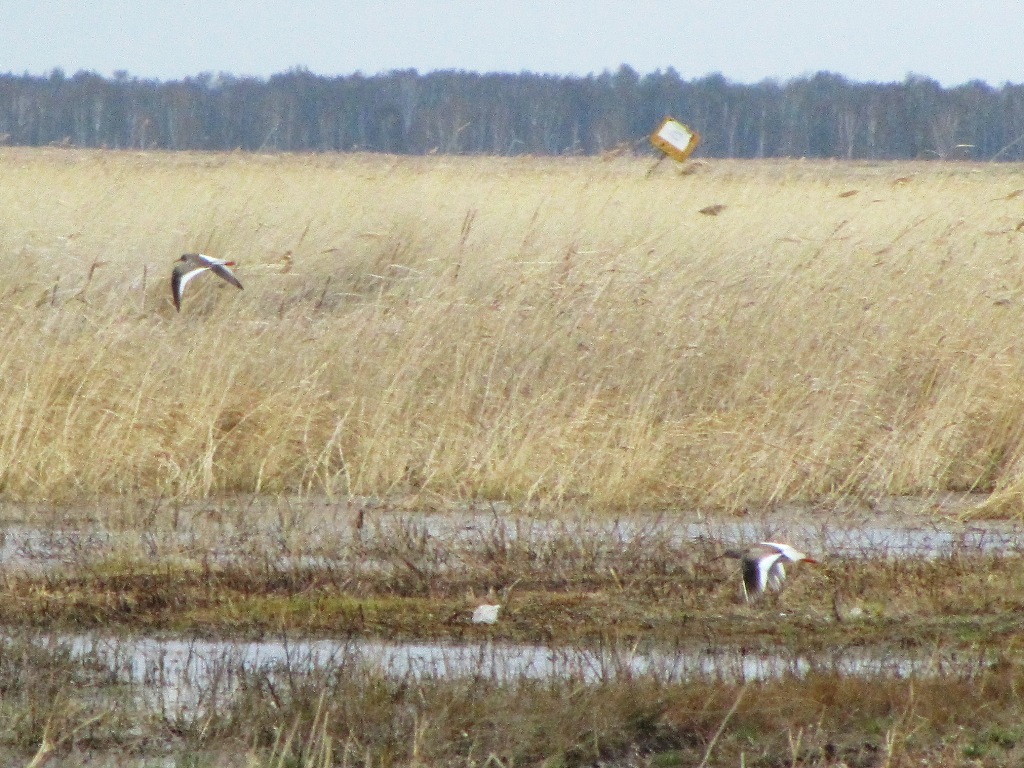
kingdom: Animalia
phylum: Chordata
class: Aves
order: Charadriiformes
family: Scolopacidae
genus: Tringa
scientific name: Tringa totanus
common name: Common redshank
